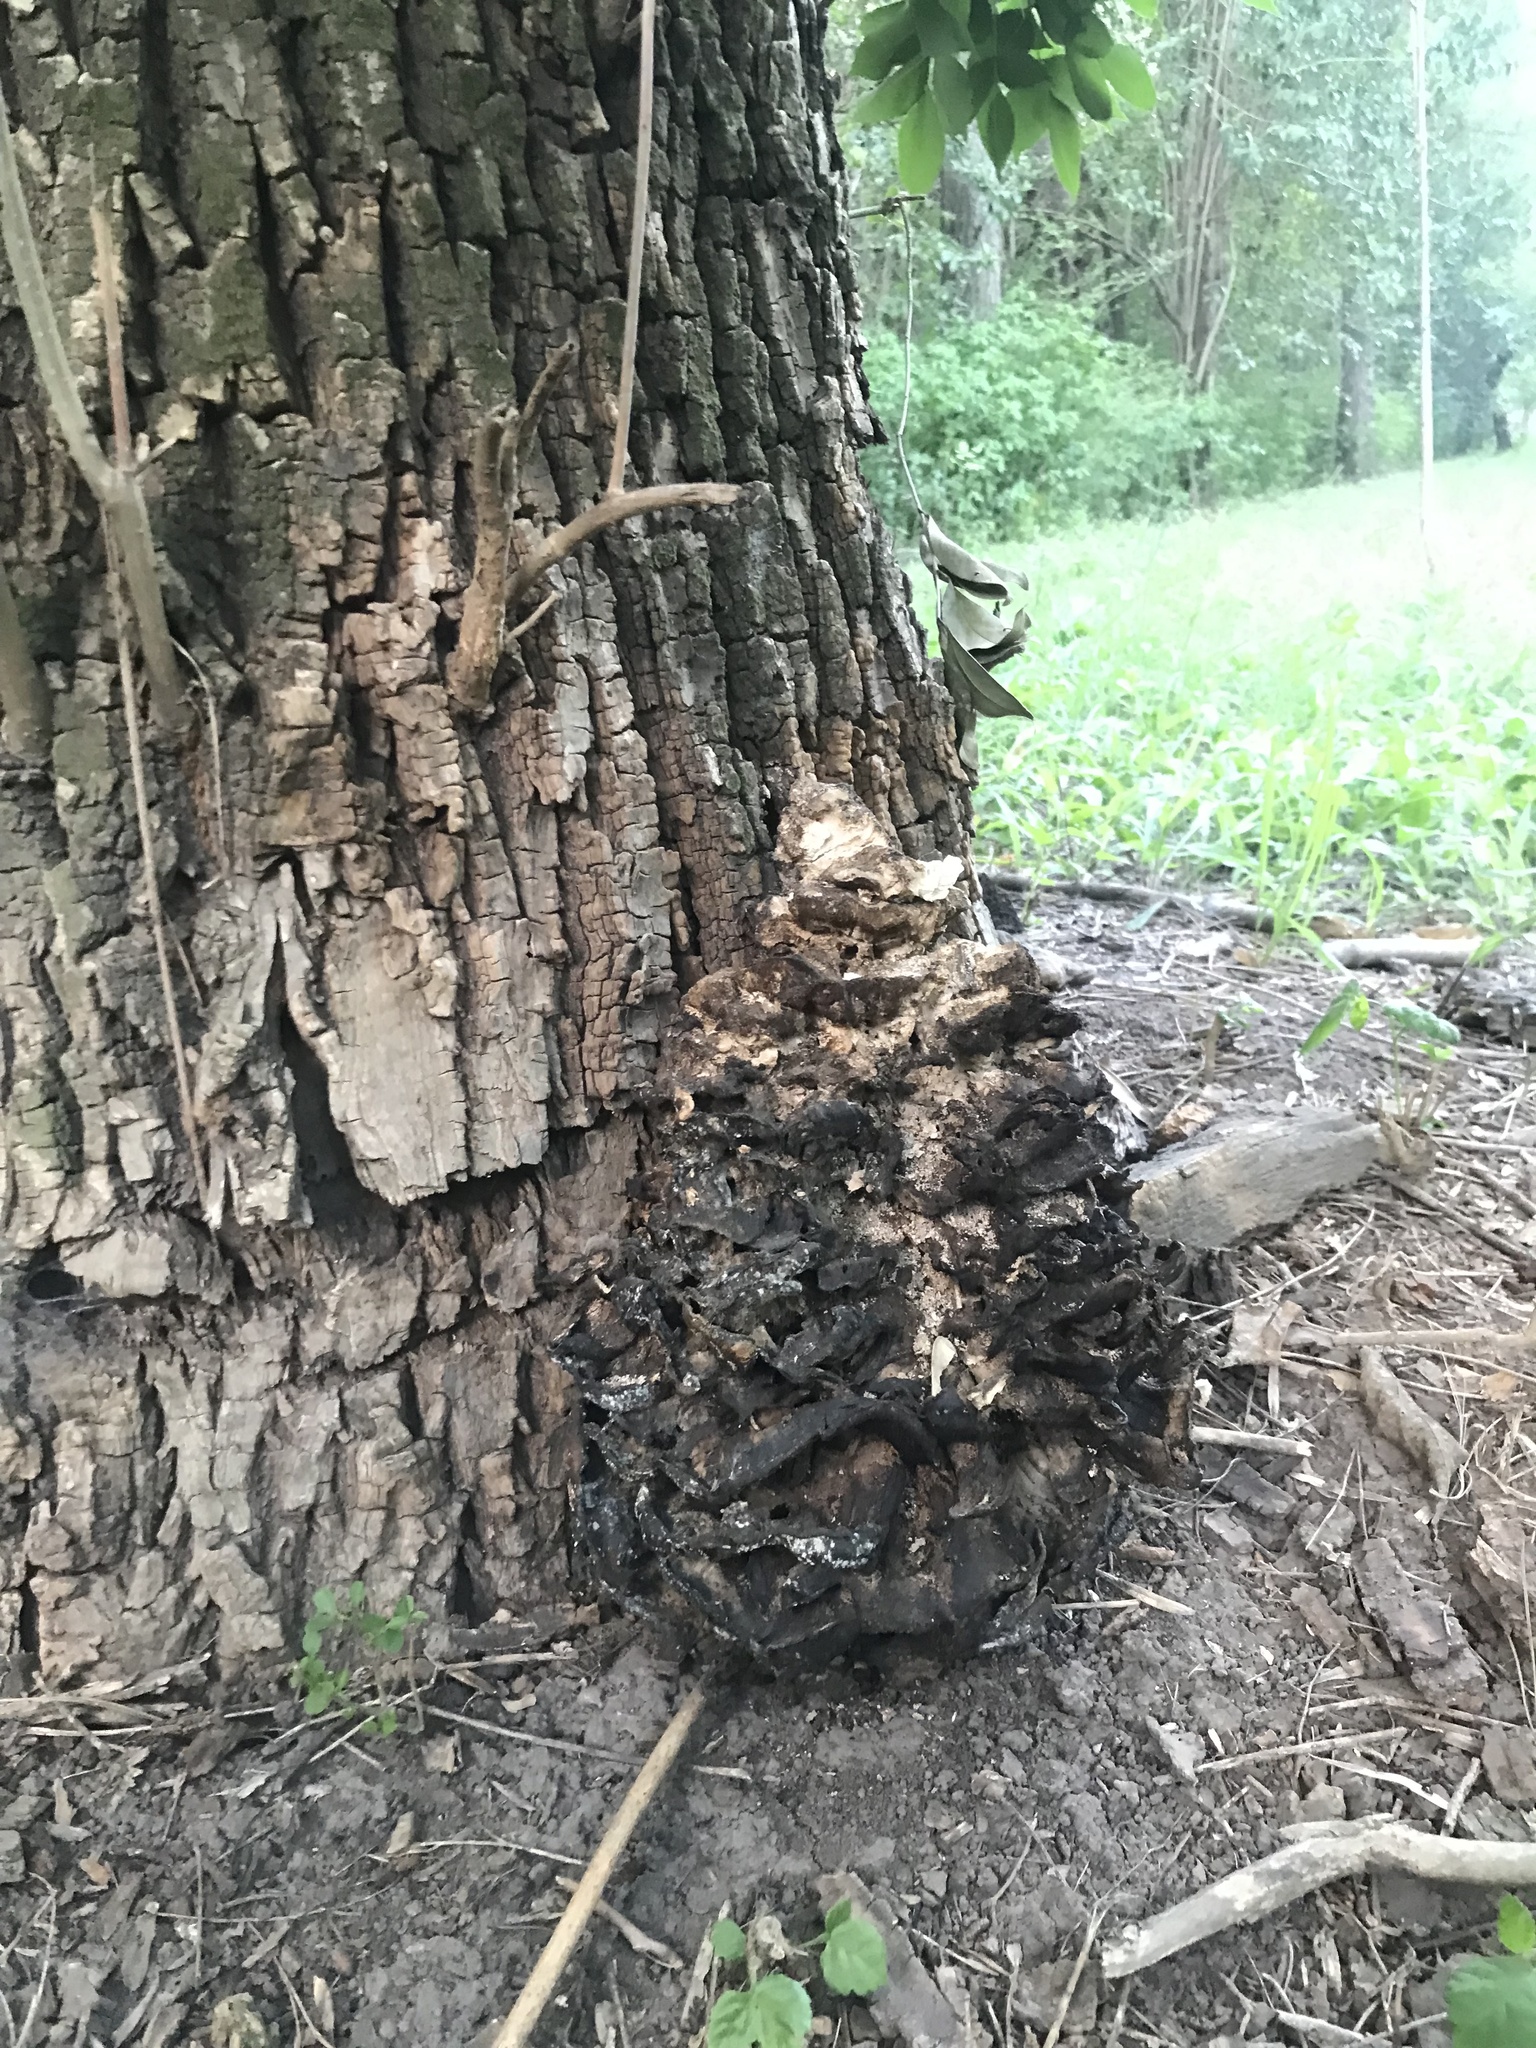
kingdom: Fungi
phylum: Basidiomycota
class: Agaricomycetes
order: Polyporales
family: Laetiporaceae
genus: Laetiporus
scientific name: Laetiporus sulphureus
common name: Chicken of the woods
